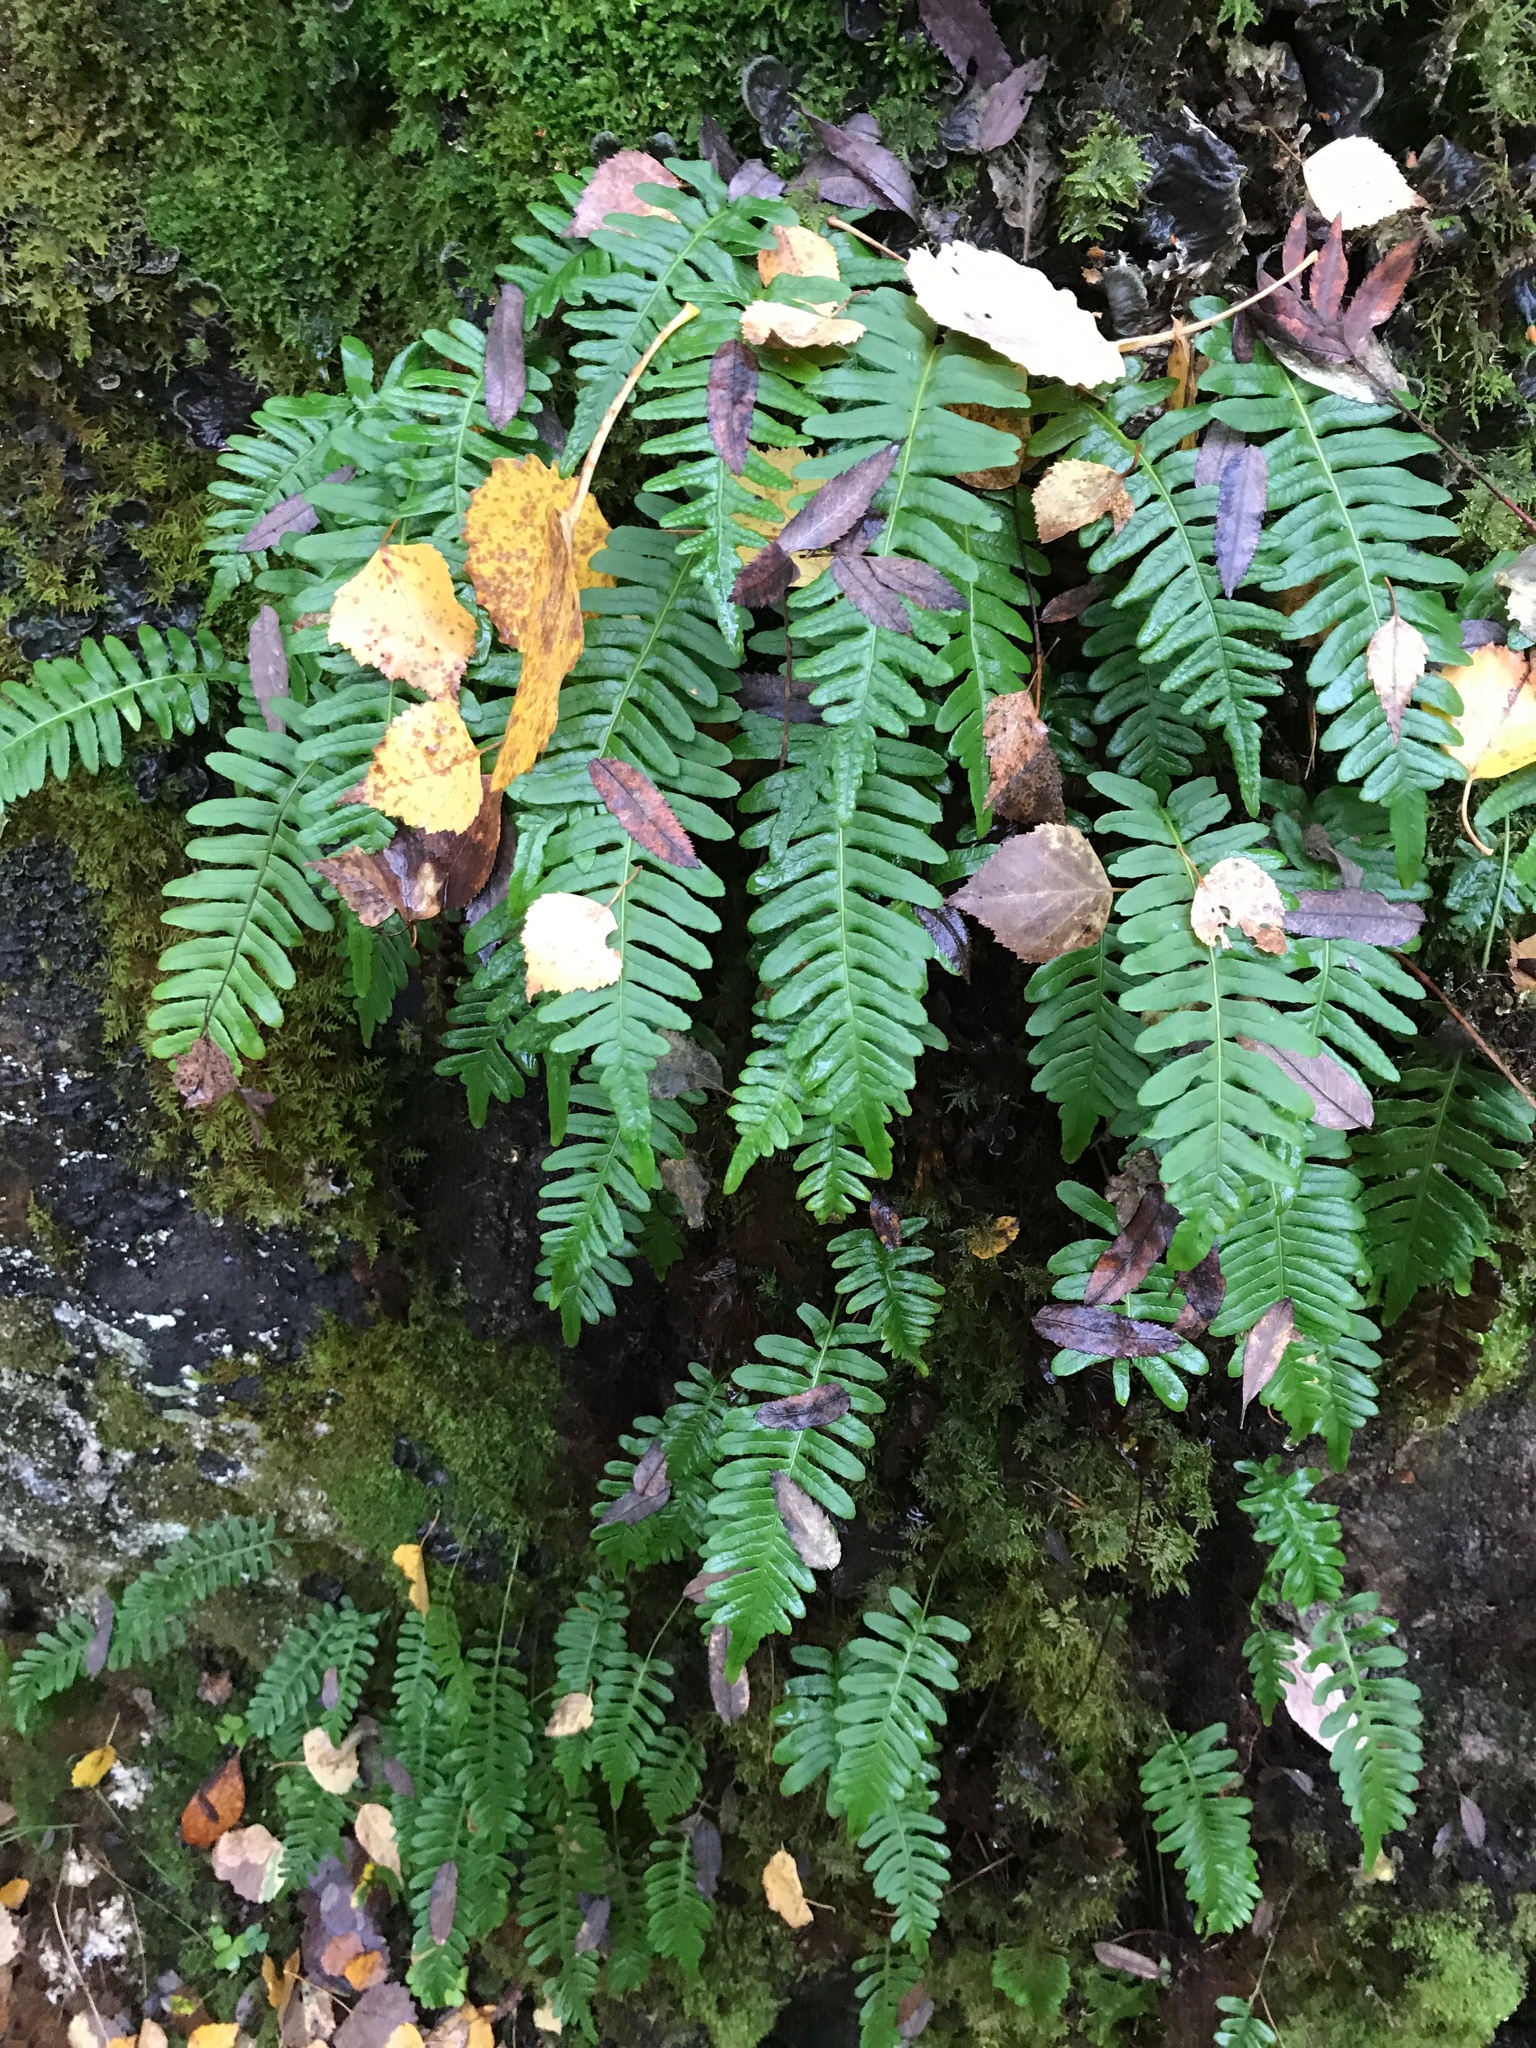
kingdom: Plantae
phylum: Tracheophyta
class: Polypodiopsida
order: Polypodiales
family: Polypodiaceae
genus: Polypodium
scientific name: Polypodium vulgare
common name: Common polypody
